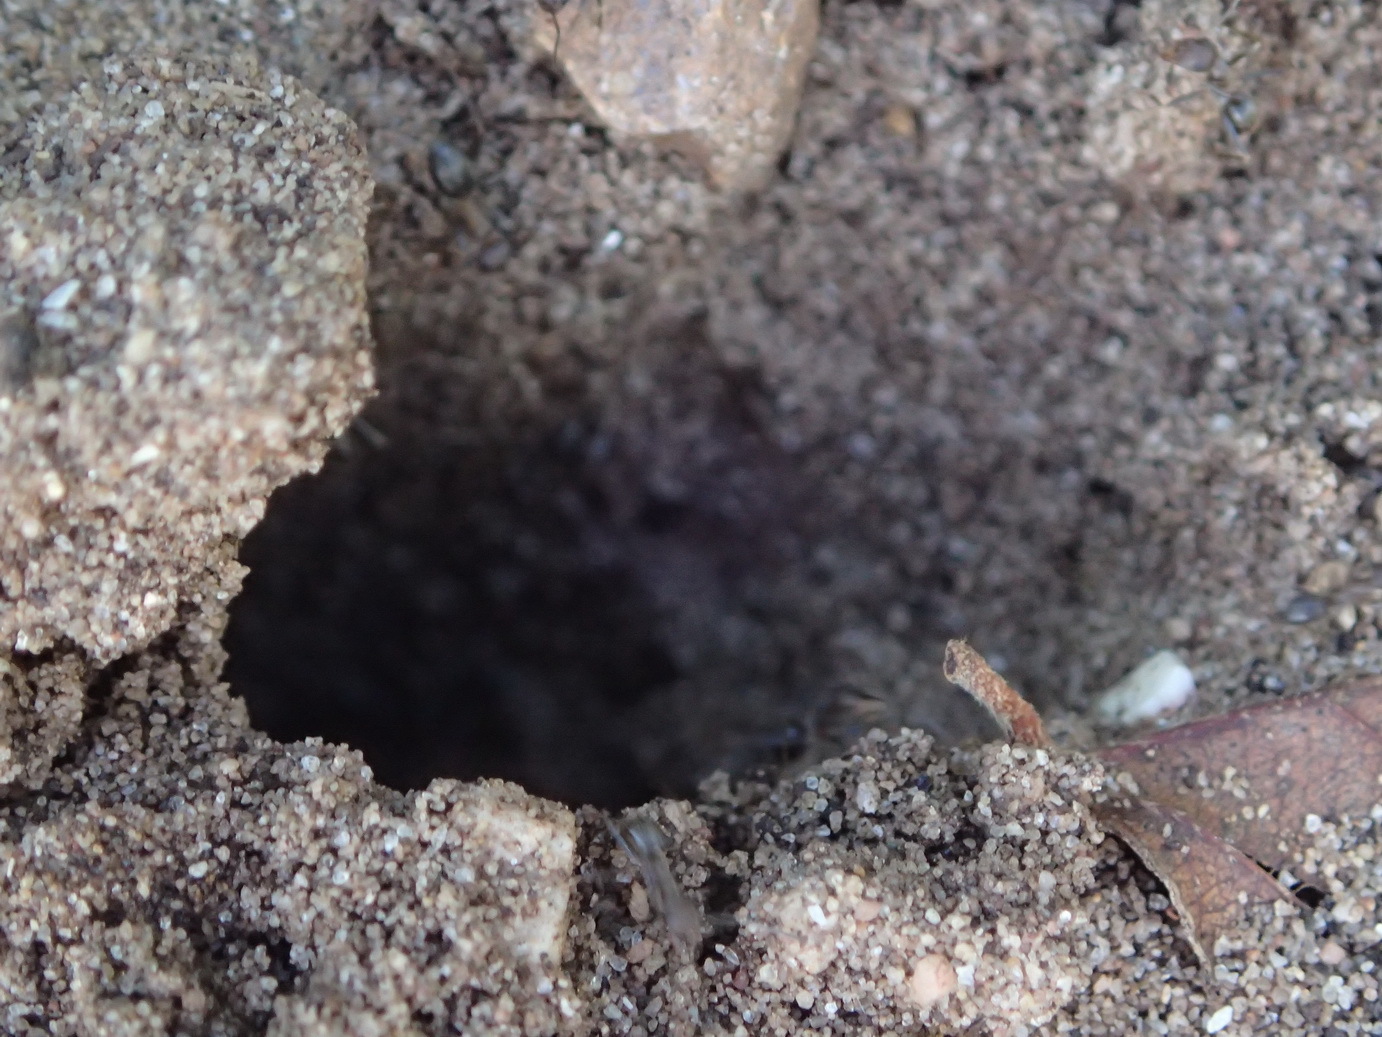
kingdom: Animalia
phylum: Arthropoda
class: Insecta
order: Hymenoptera
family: Formicidae
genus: Anoplolepis
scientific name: Anoplolepis rufescens
